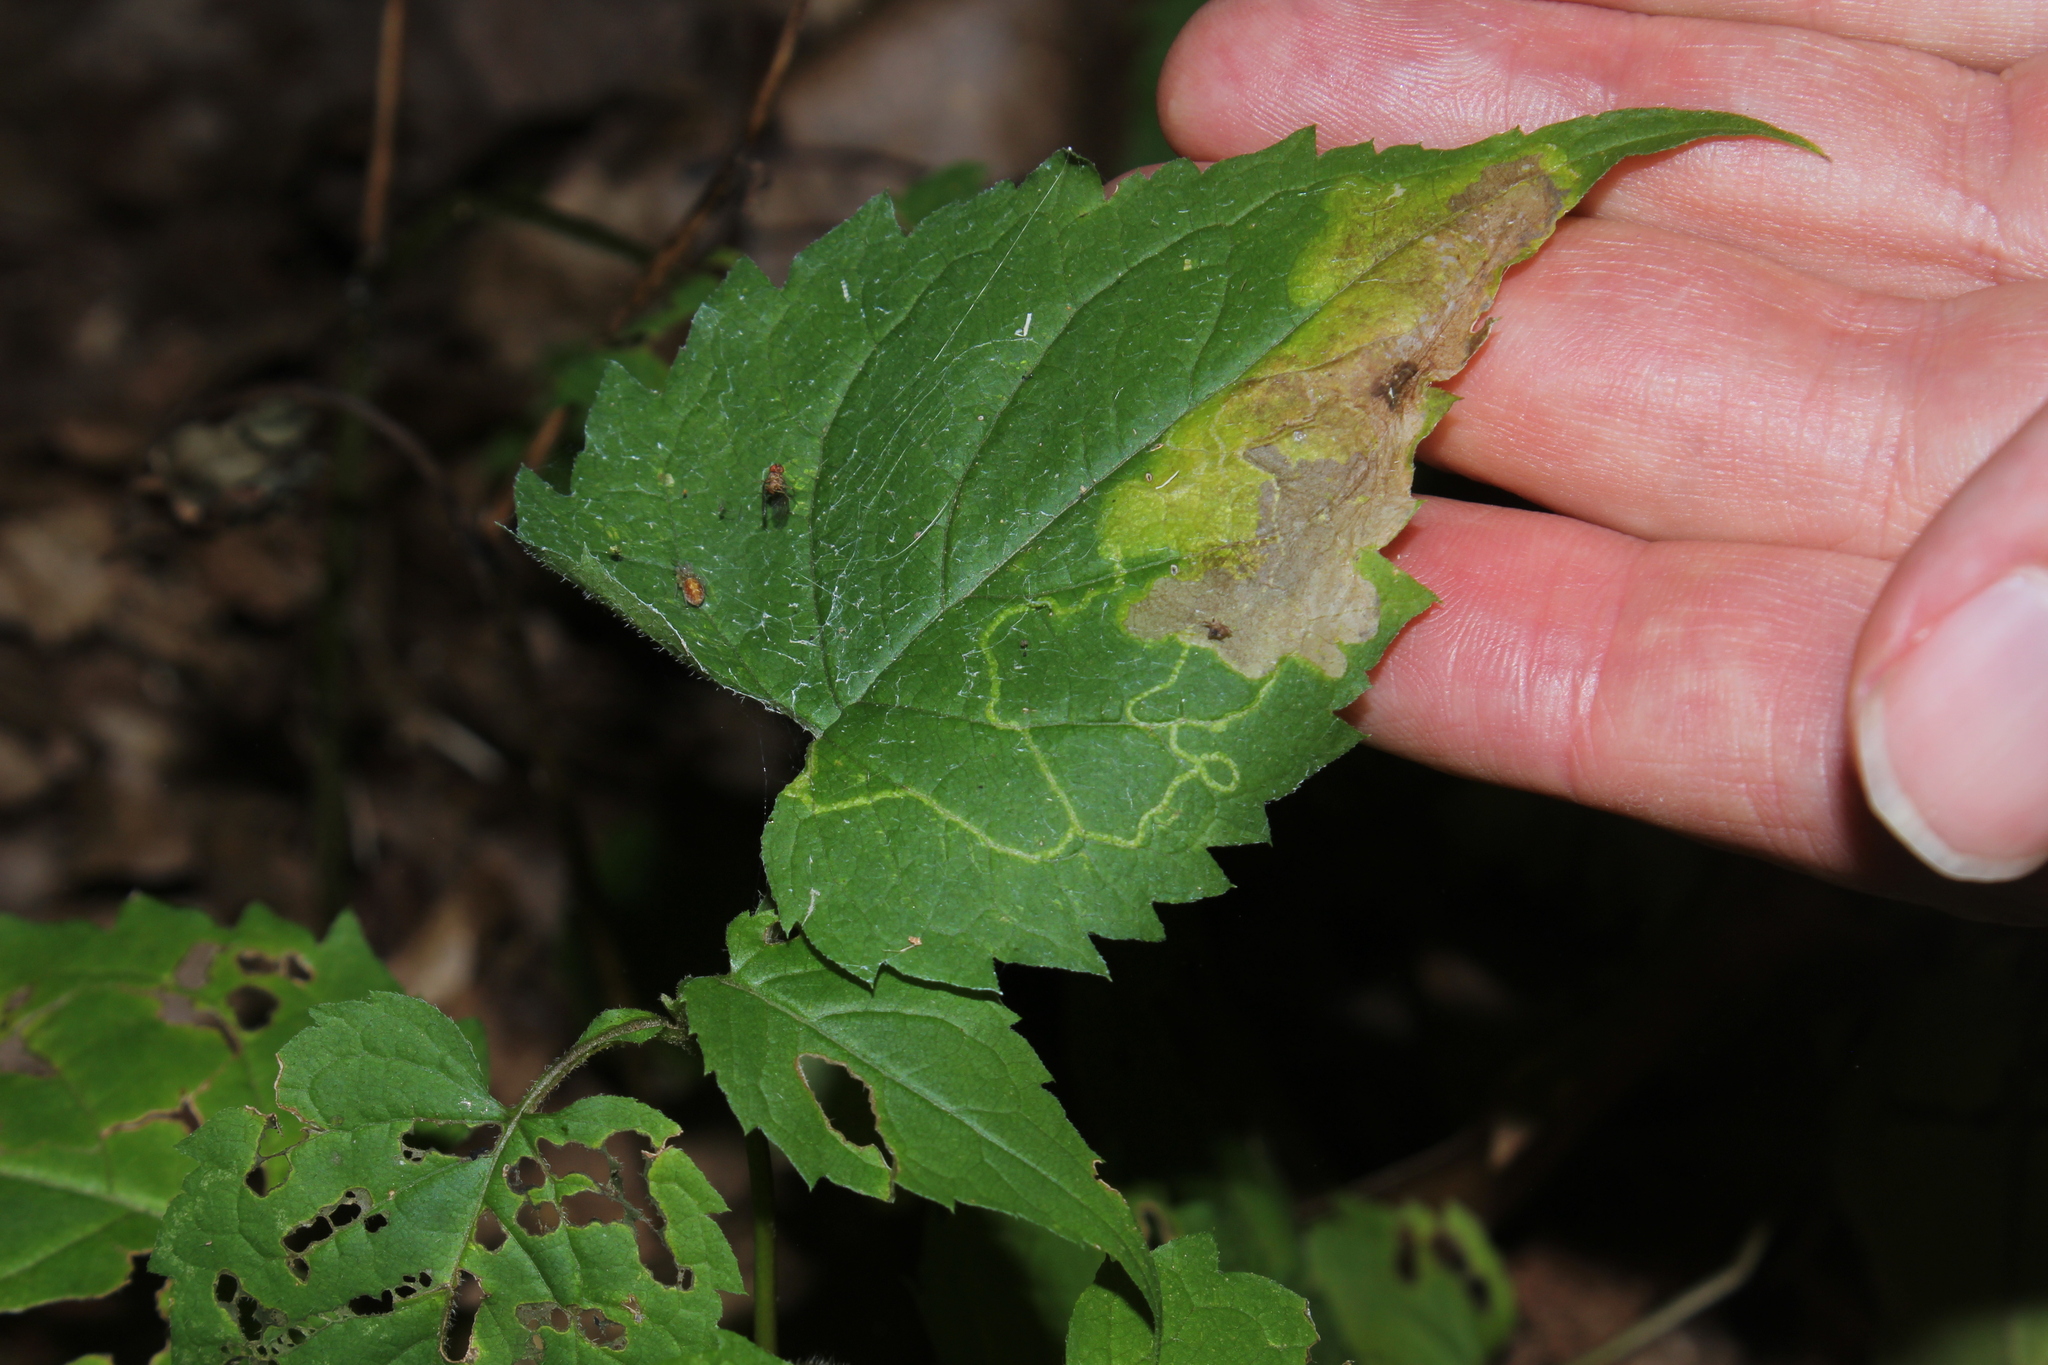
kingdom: Animalia
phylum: Arthropoda
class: Insecta
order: Lepidoptera
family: Gracillariidae
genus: Acrocercops
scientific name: Acrocercops astericola
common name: Aster tentiform blotchminer
